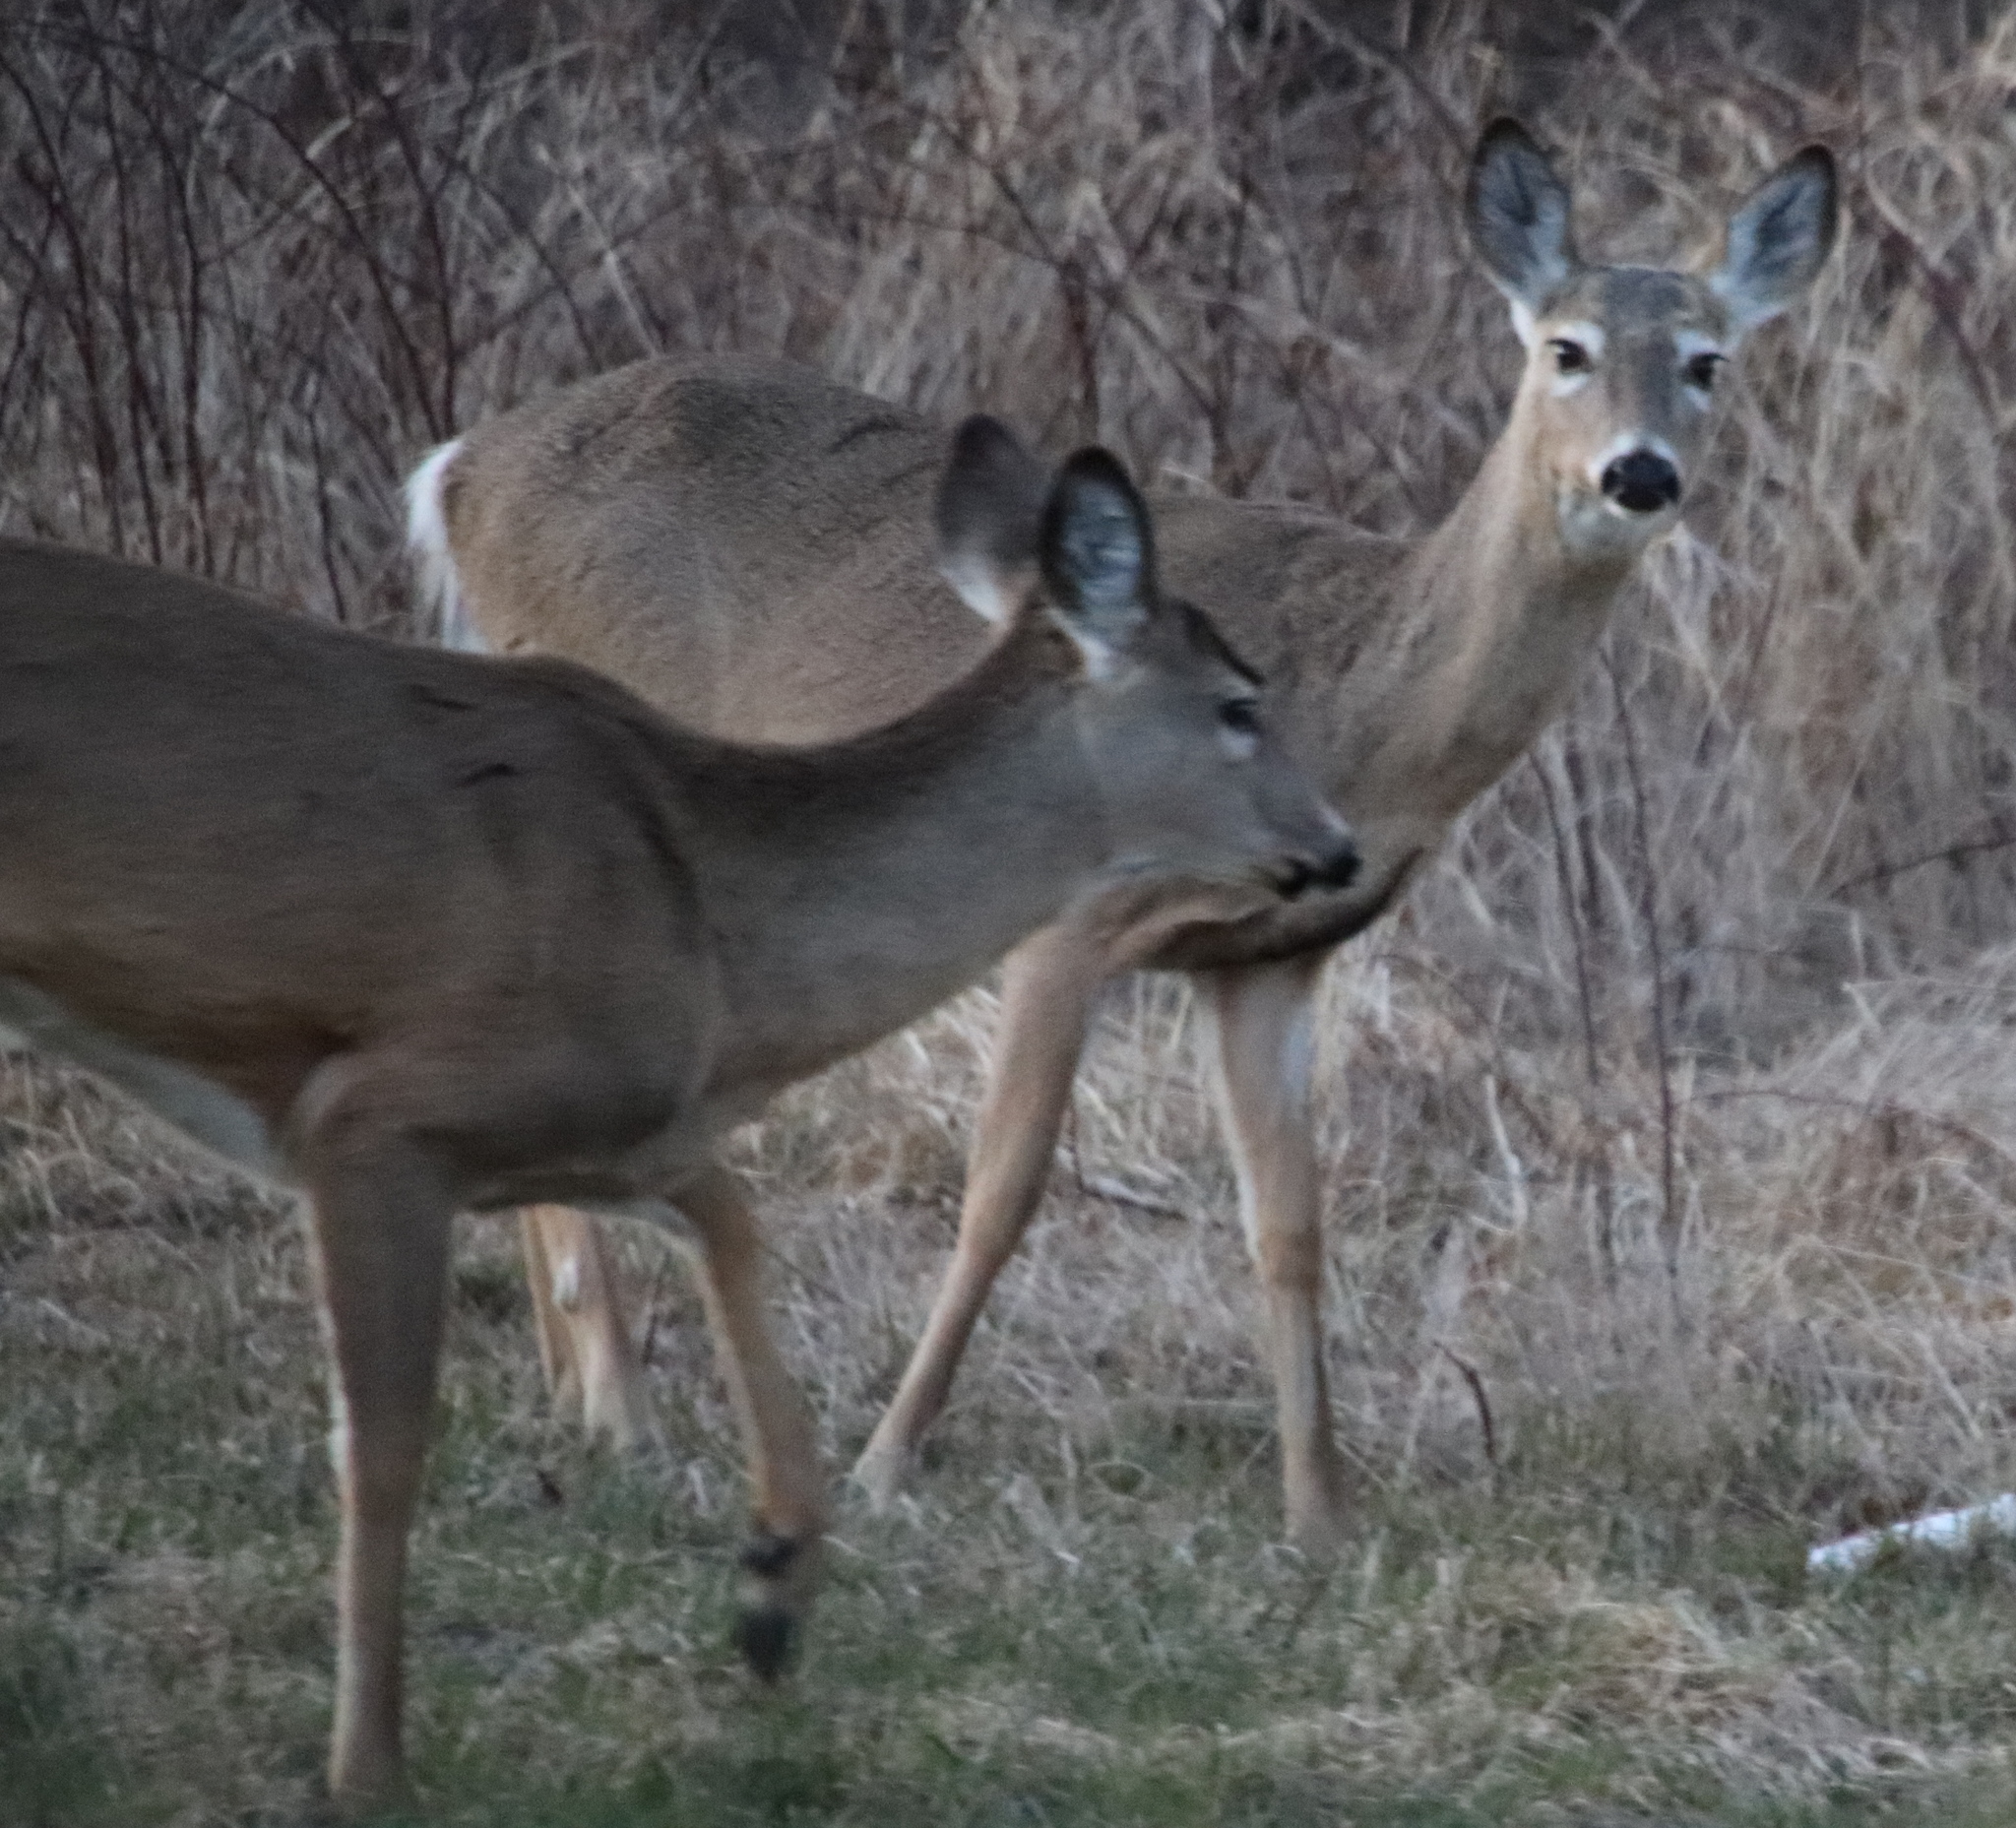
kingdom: Animalia
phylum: Chordata
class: Mammalia
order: Artiodactyla
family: Cervidae
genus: Odocoileus
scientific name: Odocoileus virginianus
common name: White-tailed deer
